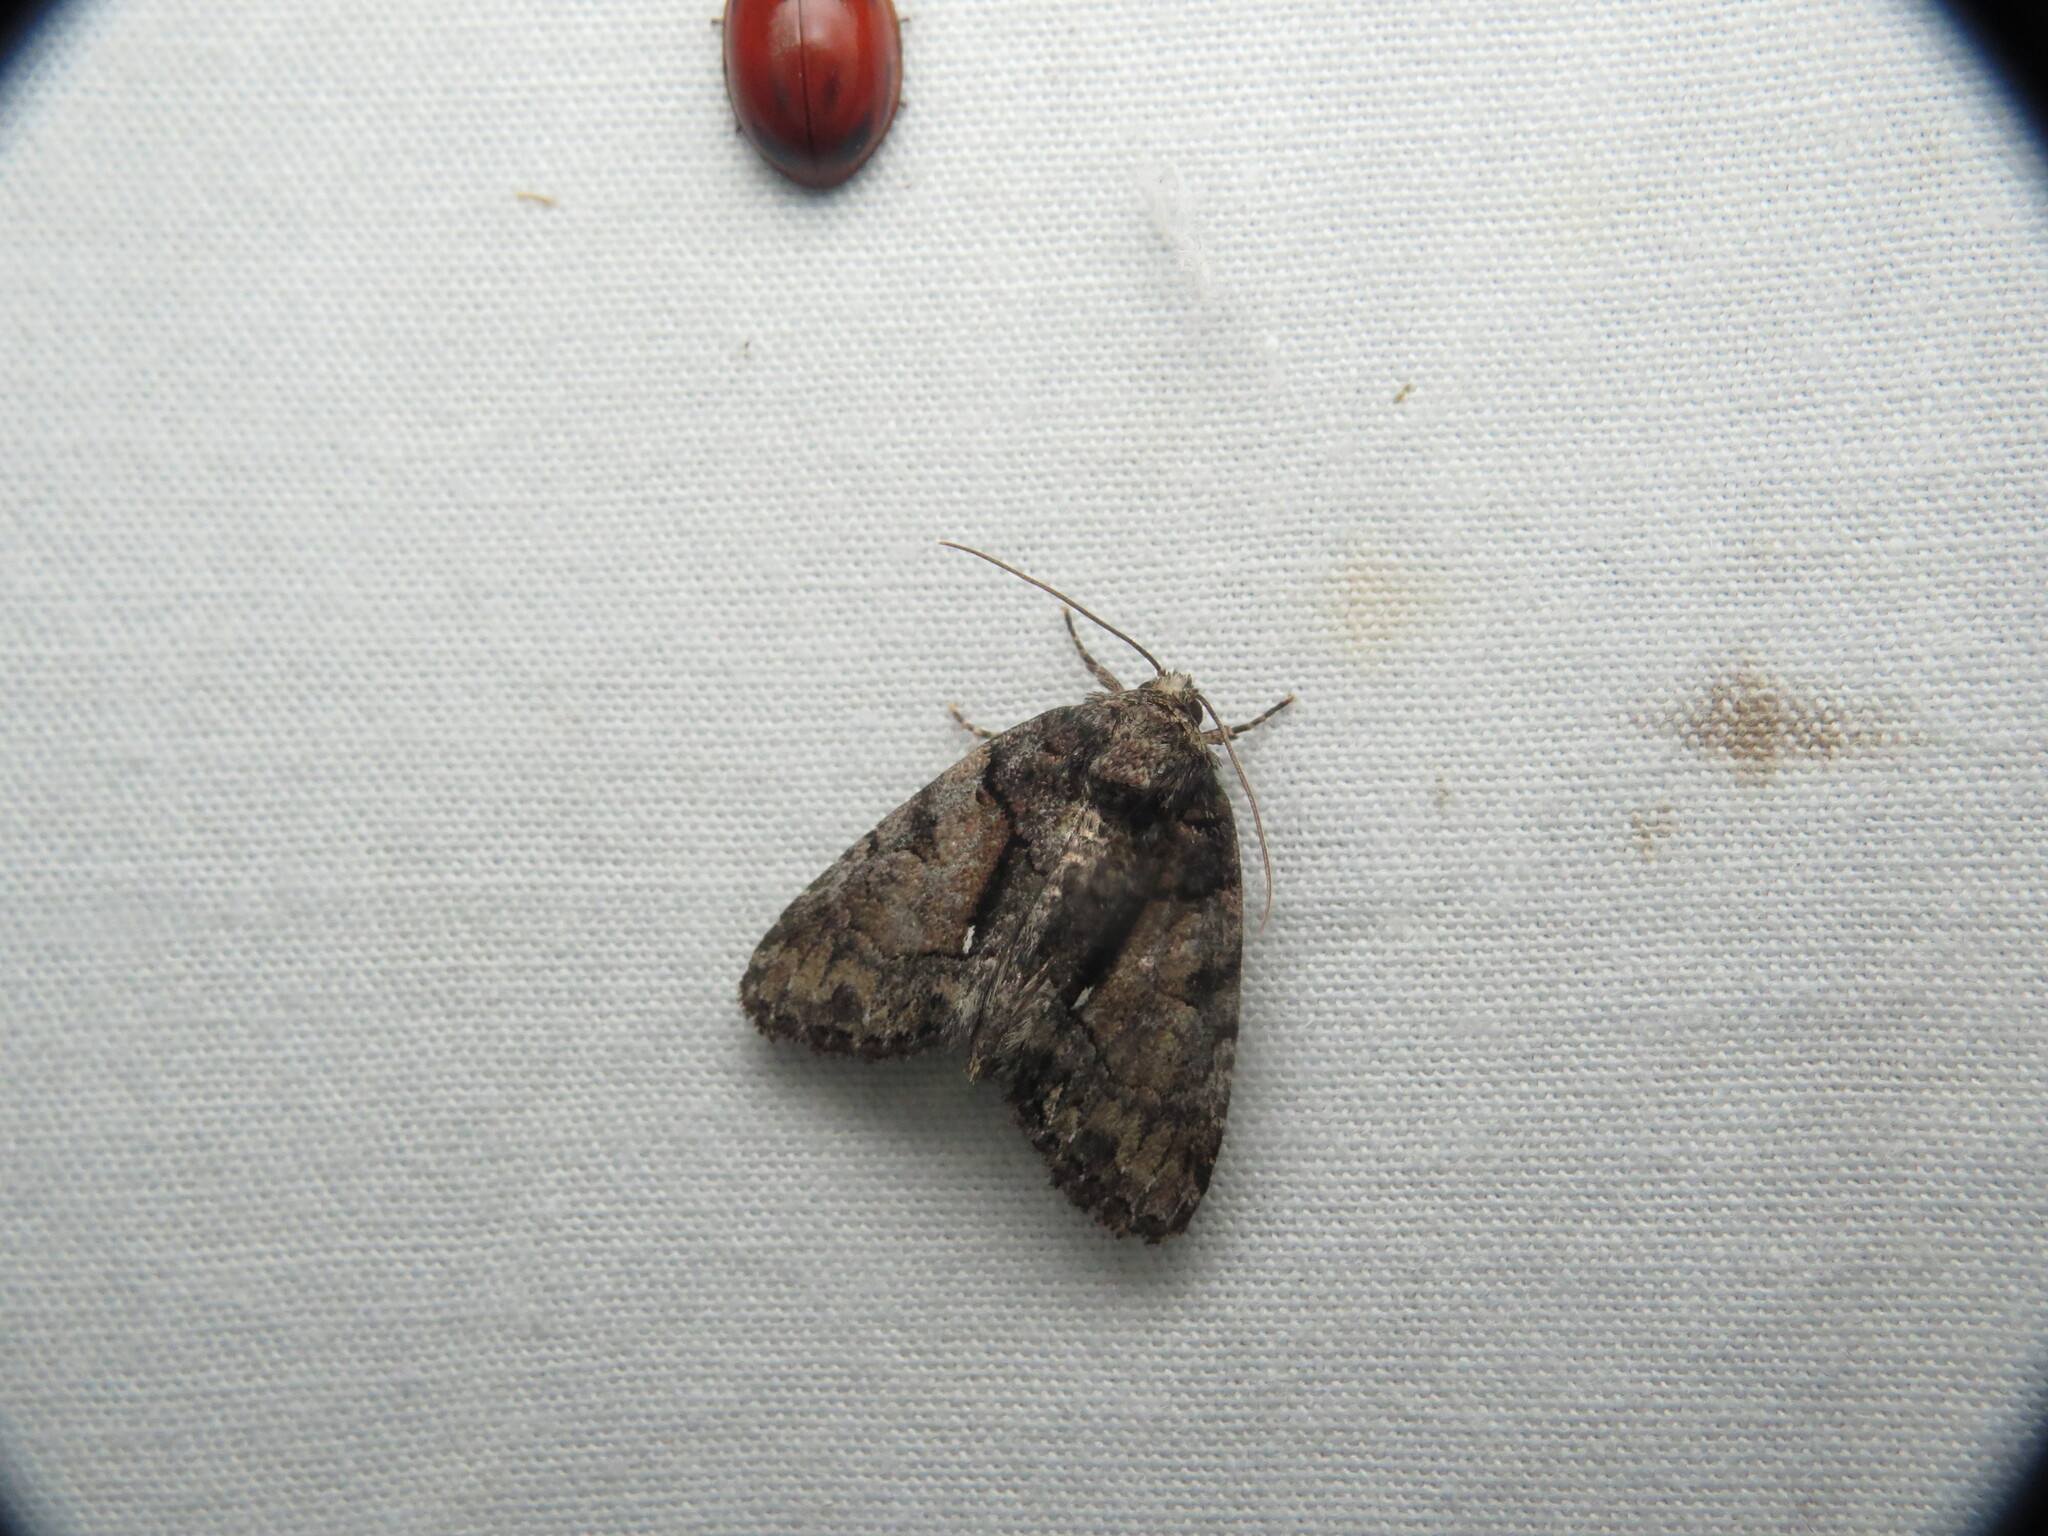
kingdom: Animalia
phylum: Arthropoda
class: Insecta
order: Lepidoptera
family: Noctuidae
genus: Chytonix
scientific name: Chytonix palliatricula
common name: Cloaked marvel
